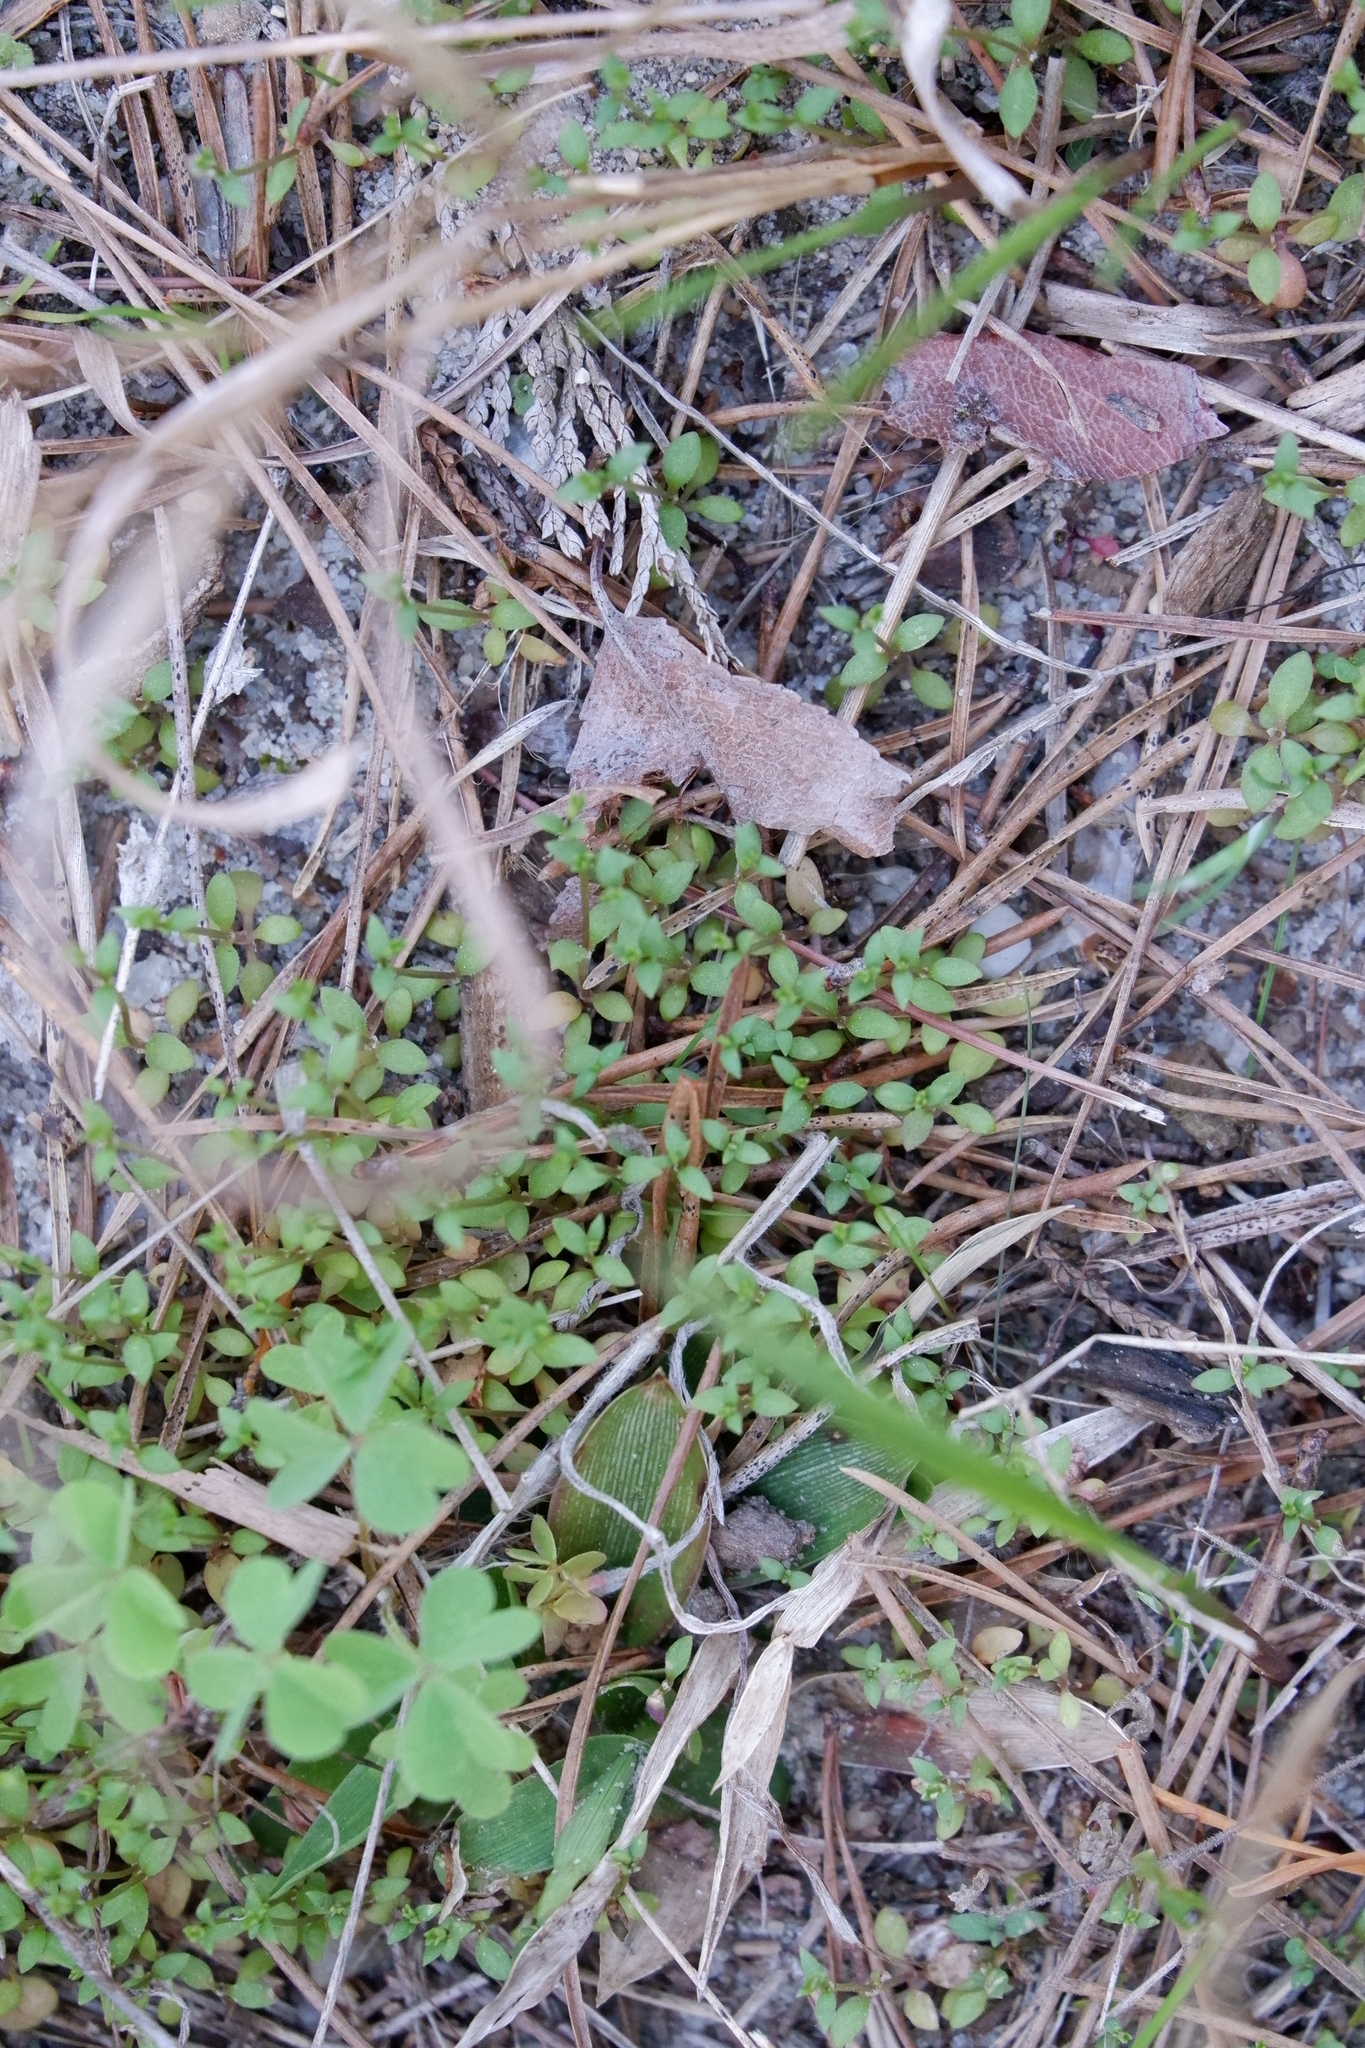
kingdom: Plantae
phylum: Tracheophyta
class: Magnoliopsida
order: Lamiales
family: Plantaginaceae
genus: Nuttallanthus
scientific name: Nuttallanthus canadensis
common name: Blue toadflax
